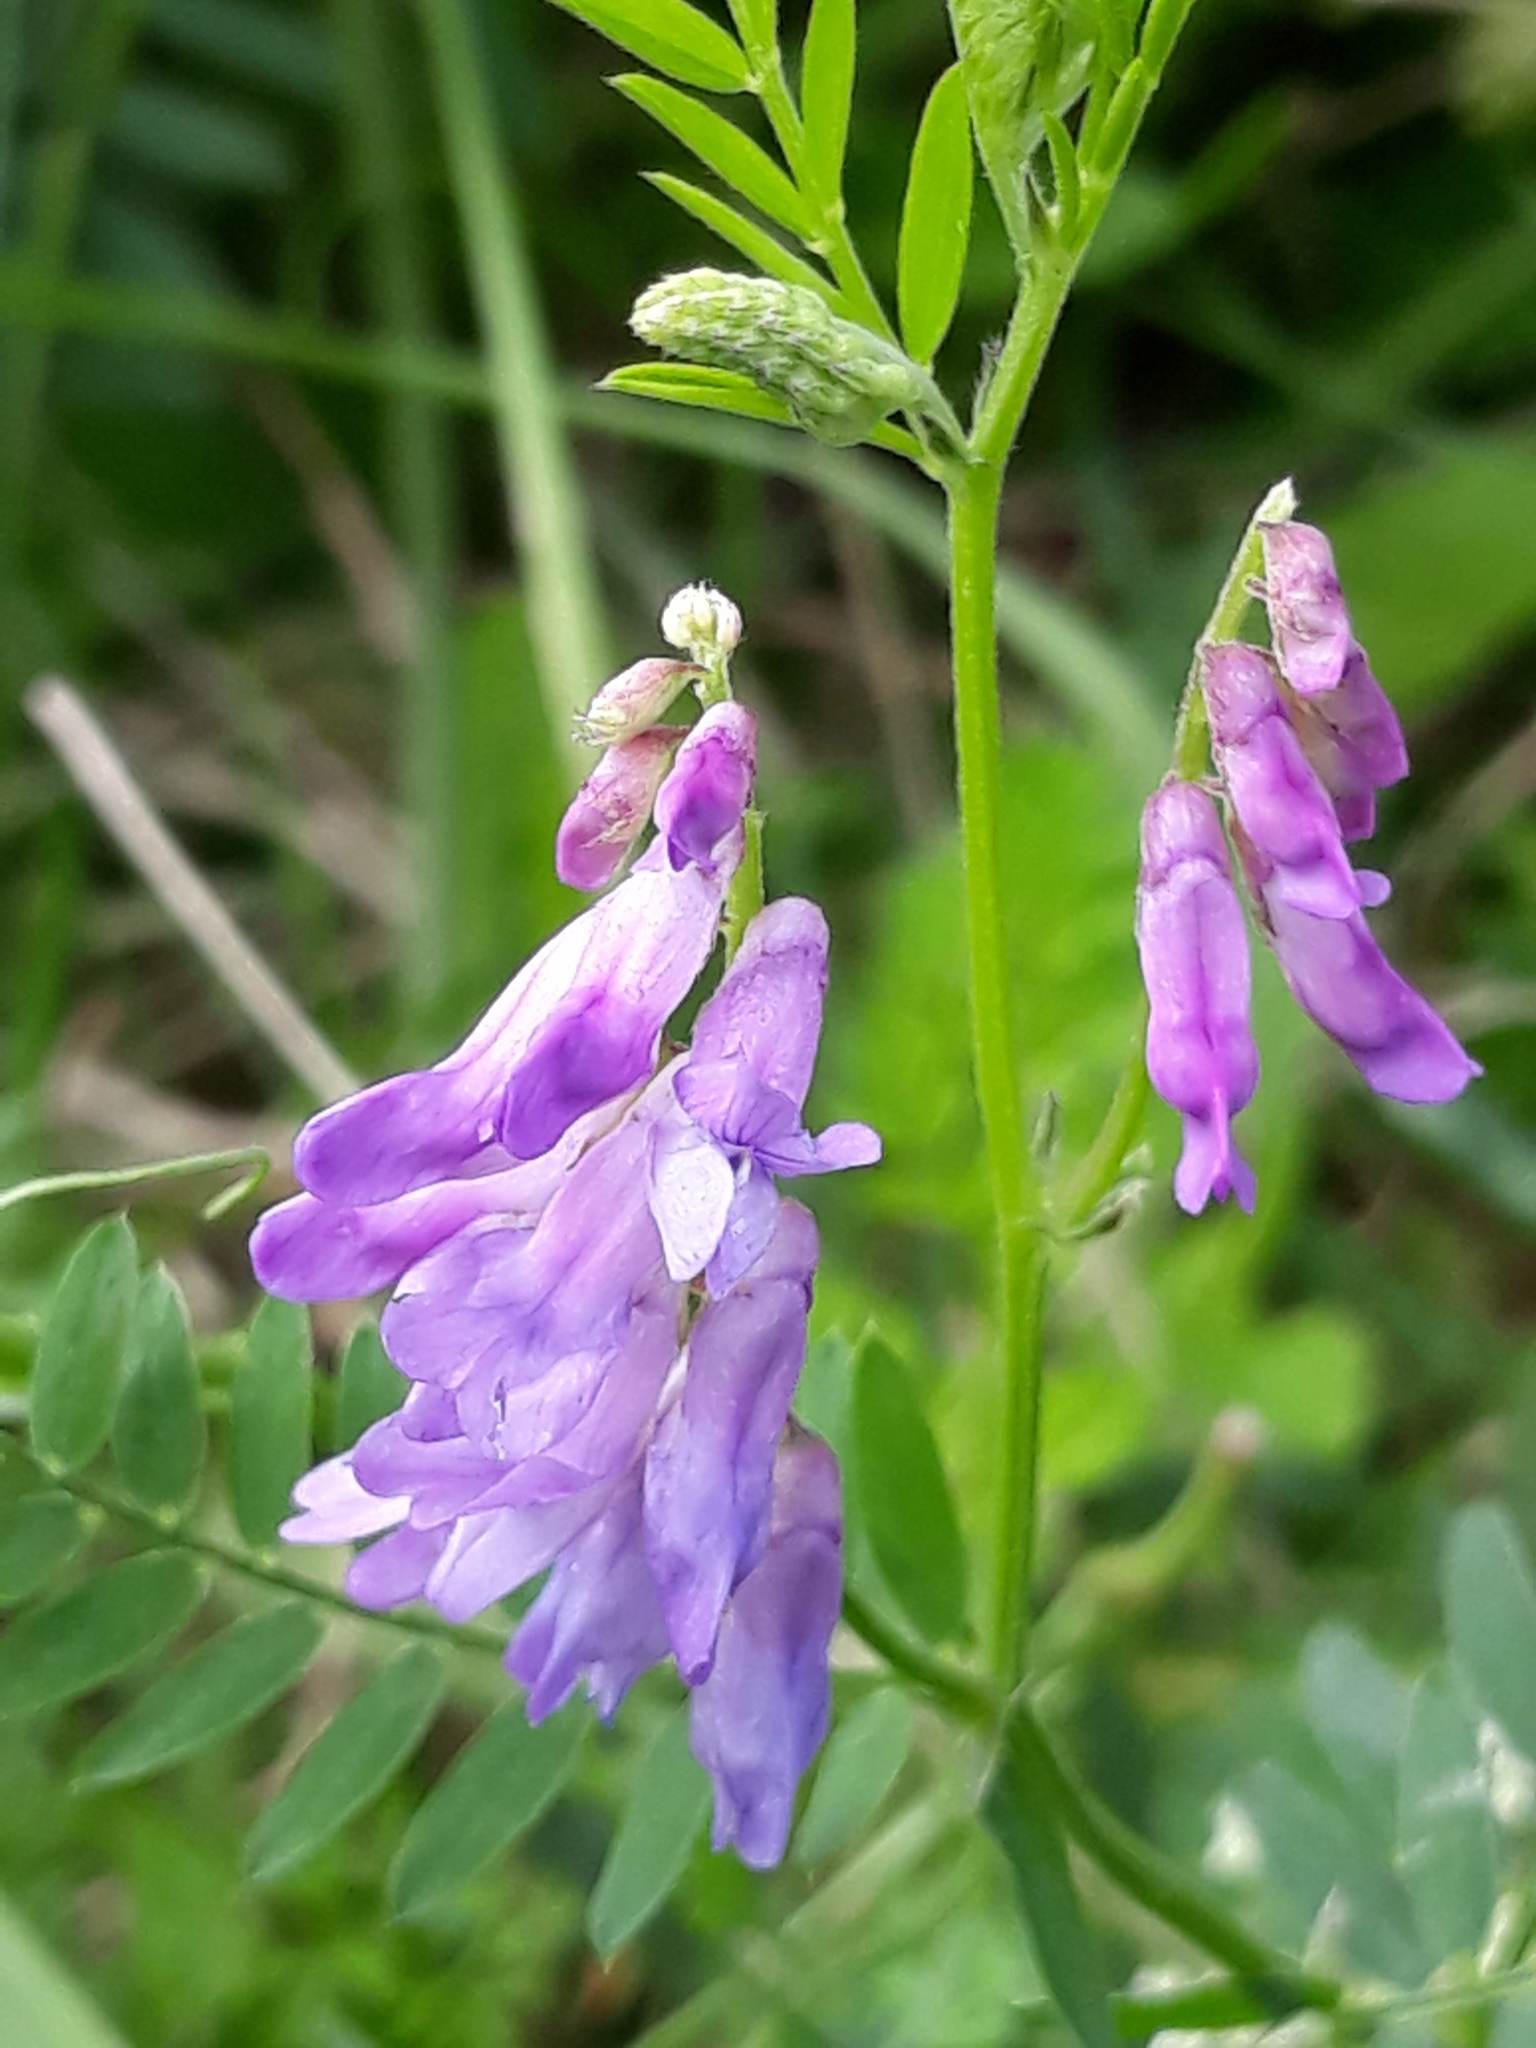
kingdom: Plantae
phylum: Tracheophyta
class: Magnoliopsida
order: Fabales
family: Fabaceae
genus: Vicia
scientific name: Vicia cracca
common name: Bird vetch
